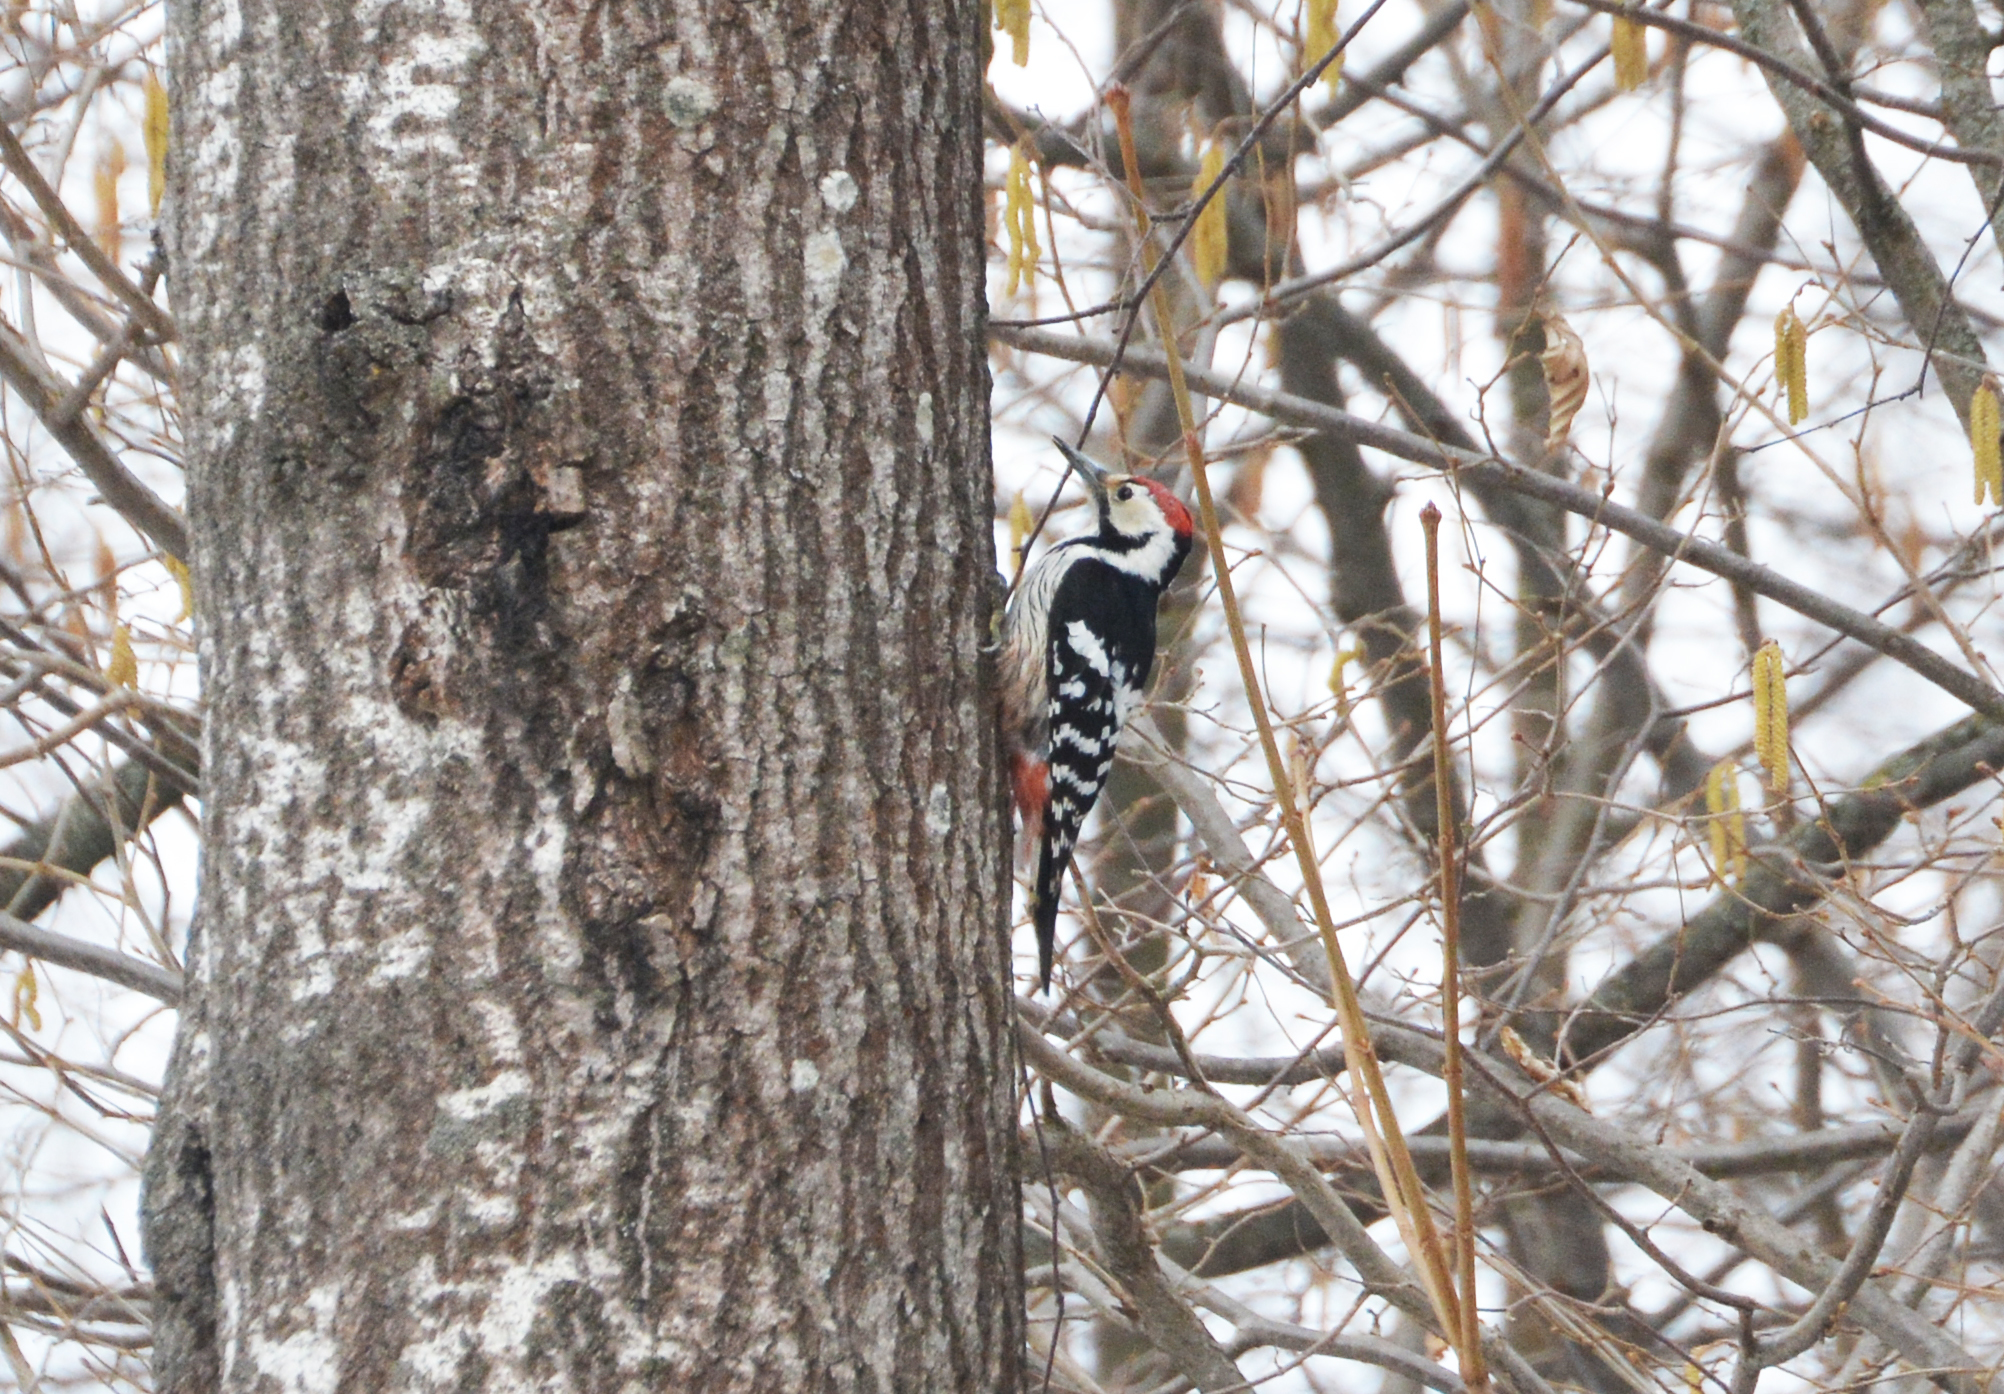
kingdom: Animalia
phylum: Chordata
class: Aves
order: Piciformes
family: Picidae
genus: Dendrocopos
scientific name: Dendrocopos leucotos
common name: White-backed woodpecker
